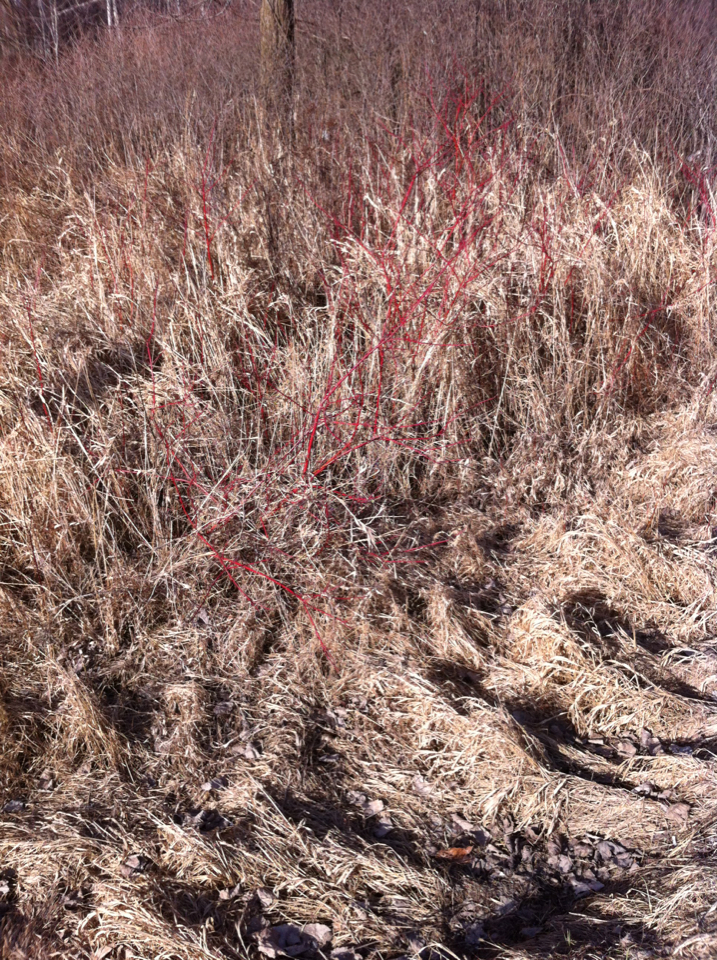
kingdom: Plantae
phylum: Tracheophyta
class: Magnoliopsida
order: Cornales
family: Cornaceae
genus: Cornus
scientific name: Cornus sericea
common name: Red-osier dogwood
